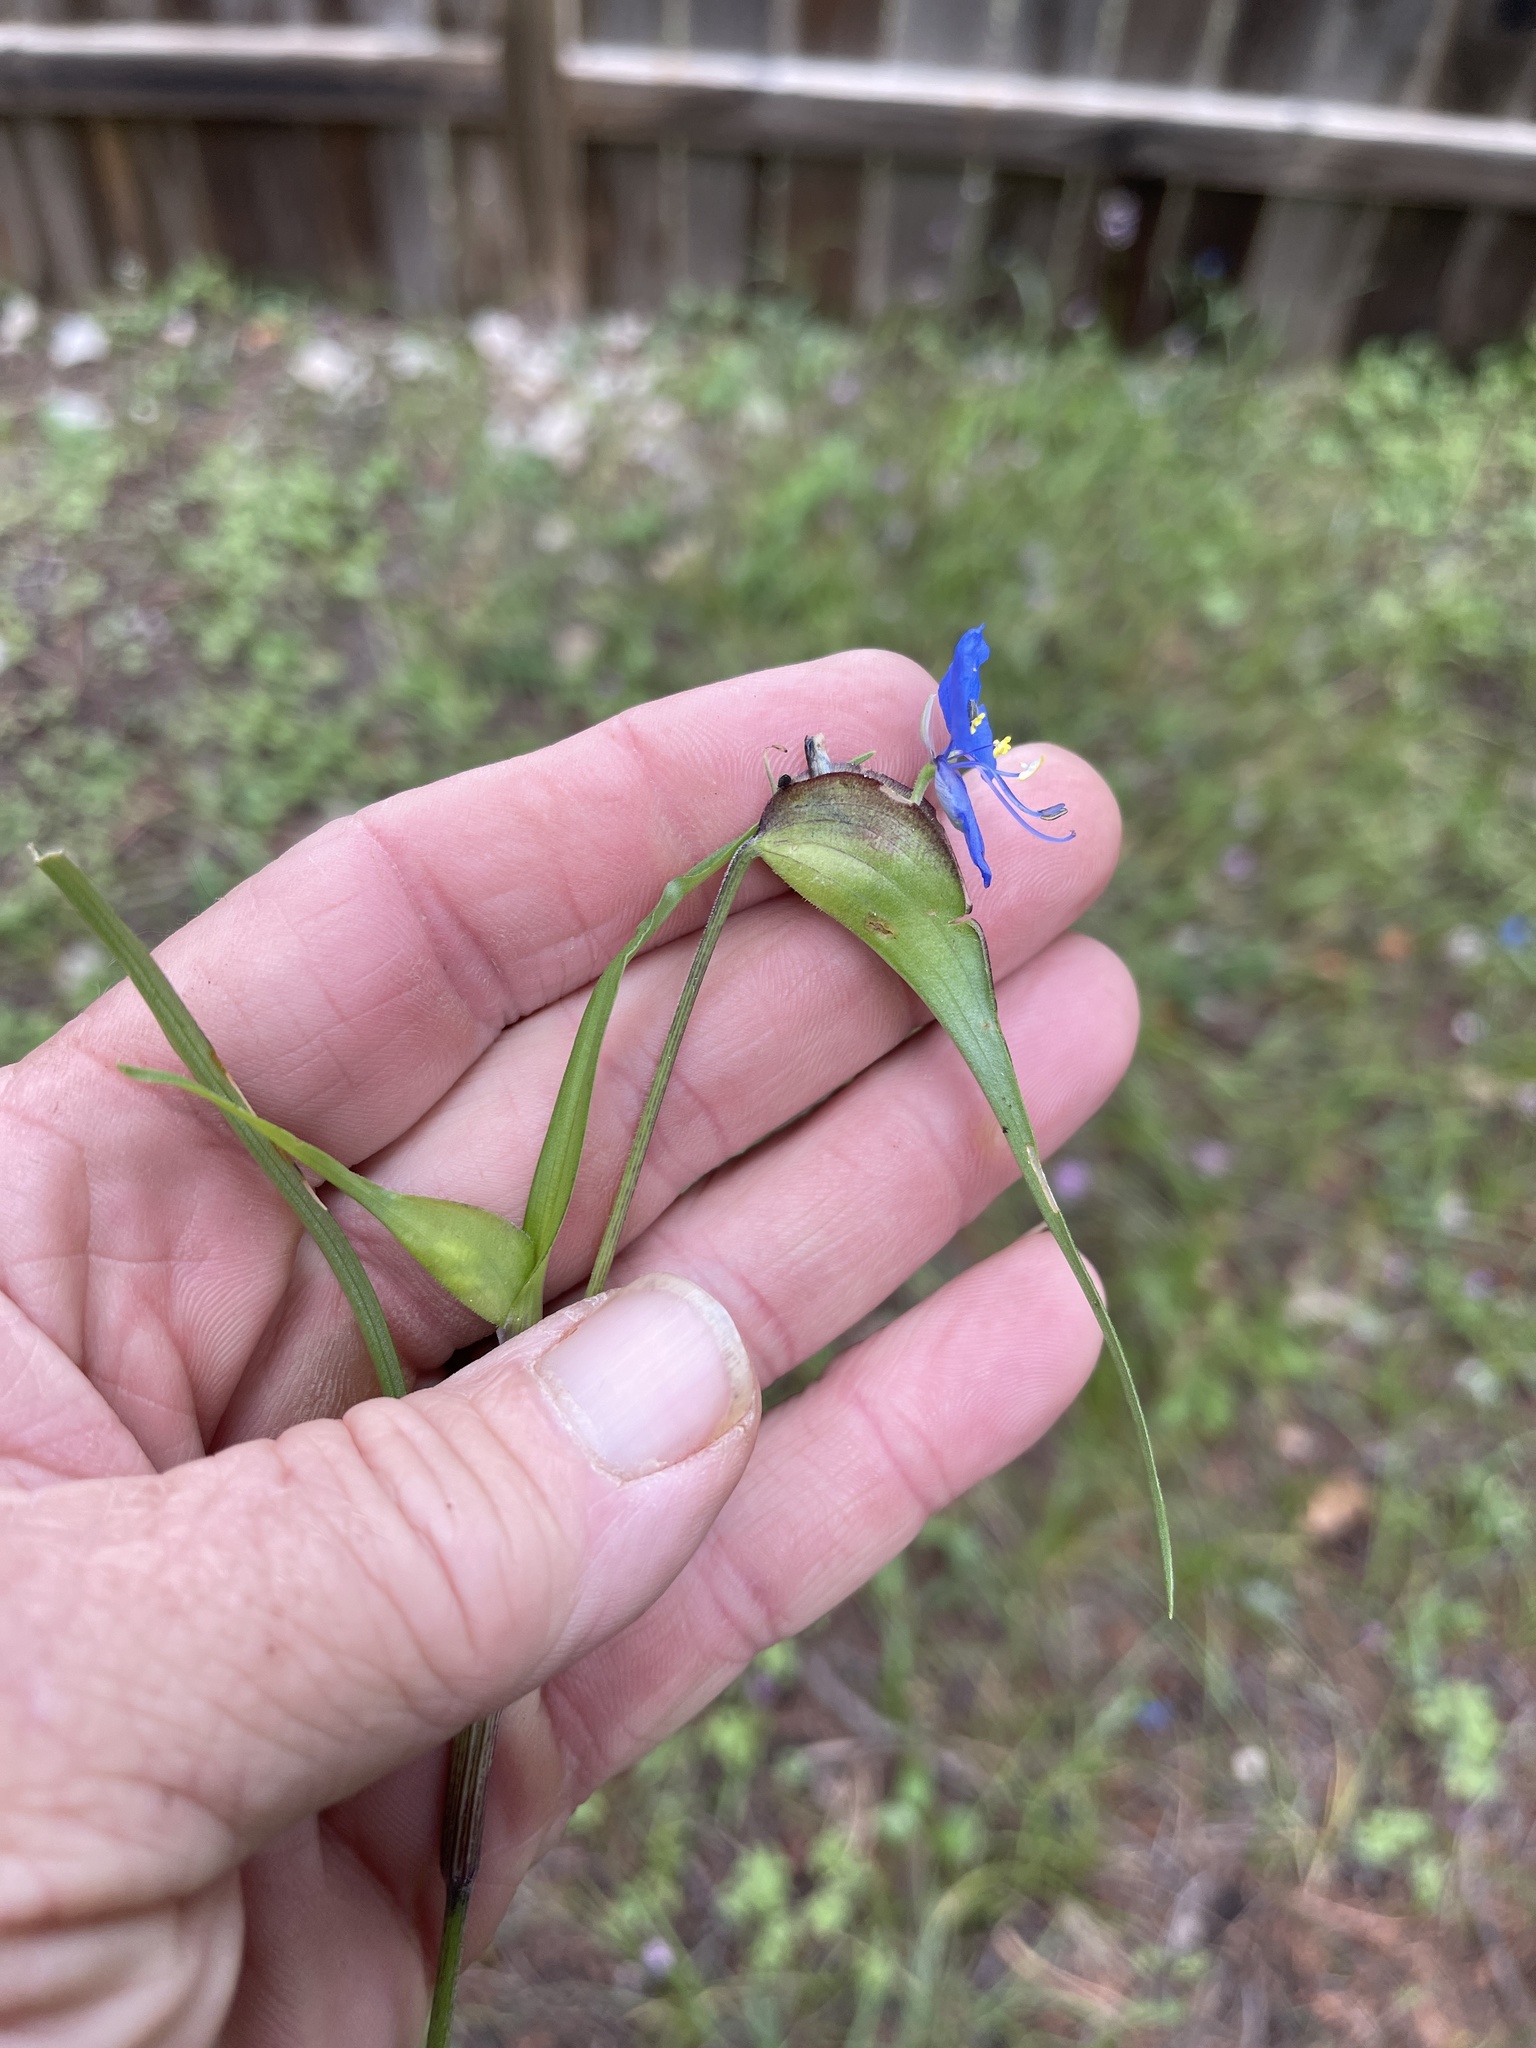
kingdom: Plantae
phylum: Tracheophyta
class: Liliopsida
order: Commelinales
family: Commelinaceae
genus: Commelina
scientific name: Commelina dianthifolia
